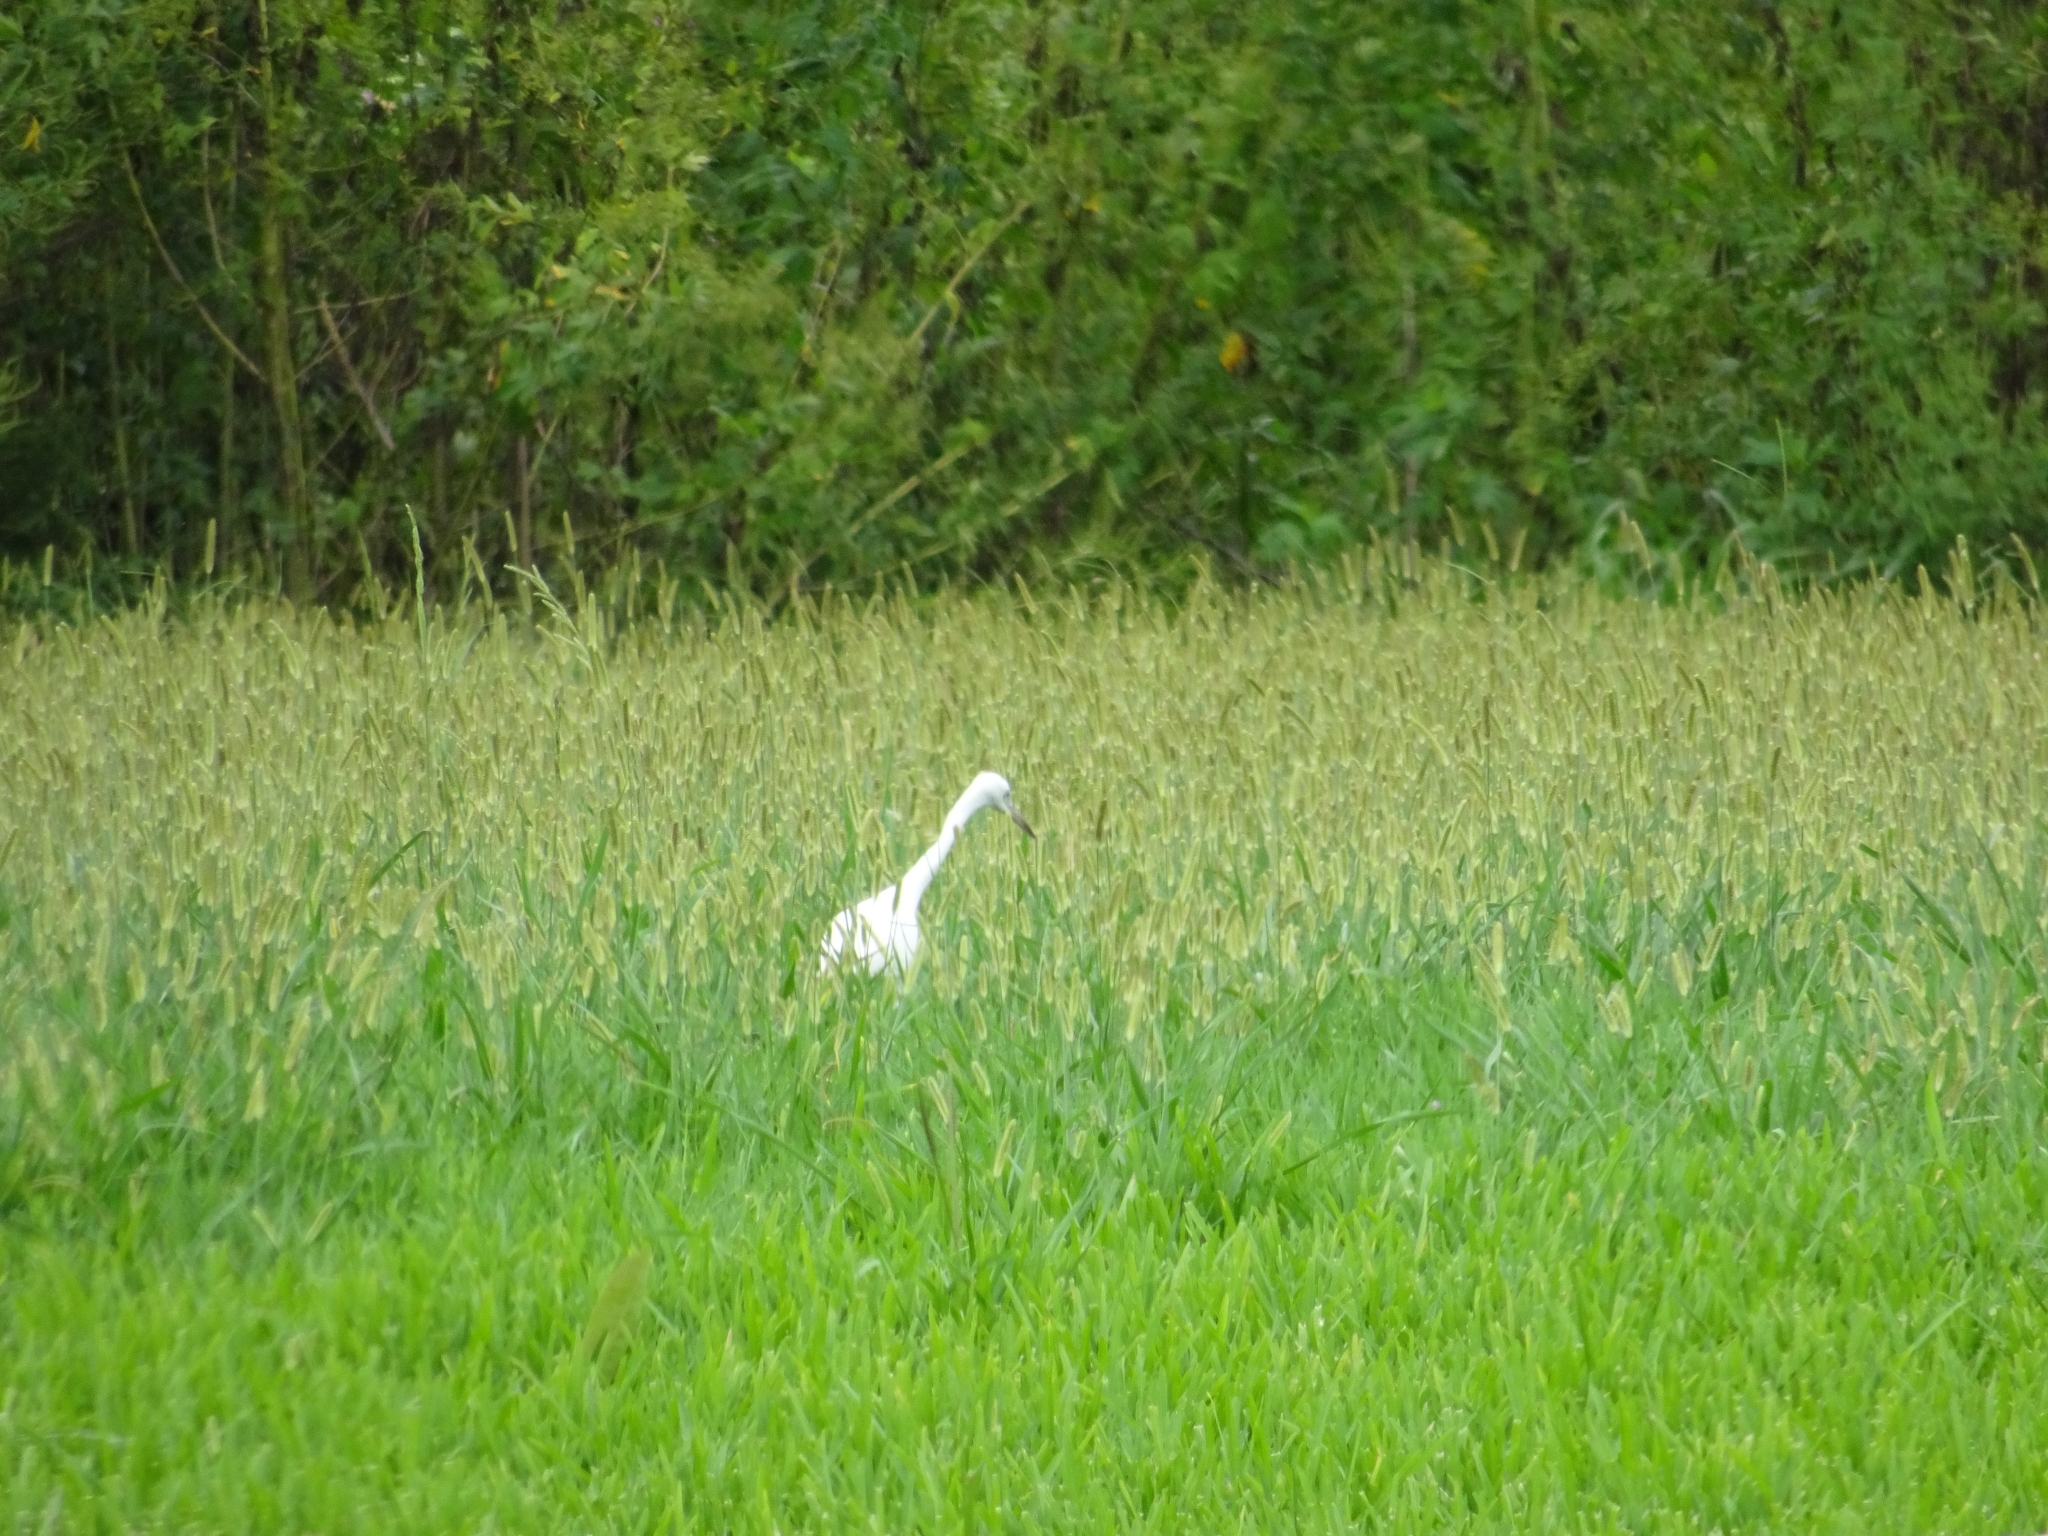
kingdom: Animalia
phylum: Chordata
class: Aves
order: Pelecaniformes
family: Ardeidae
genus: Egretta
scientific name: Egretta caerulea
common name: Little blue heron
